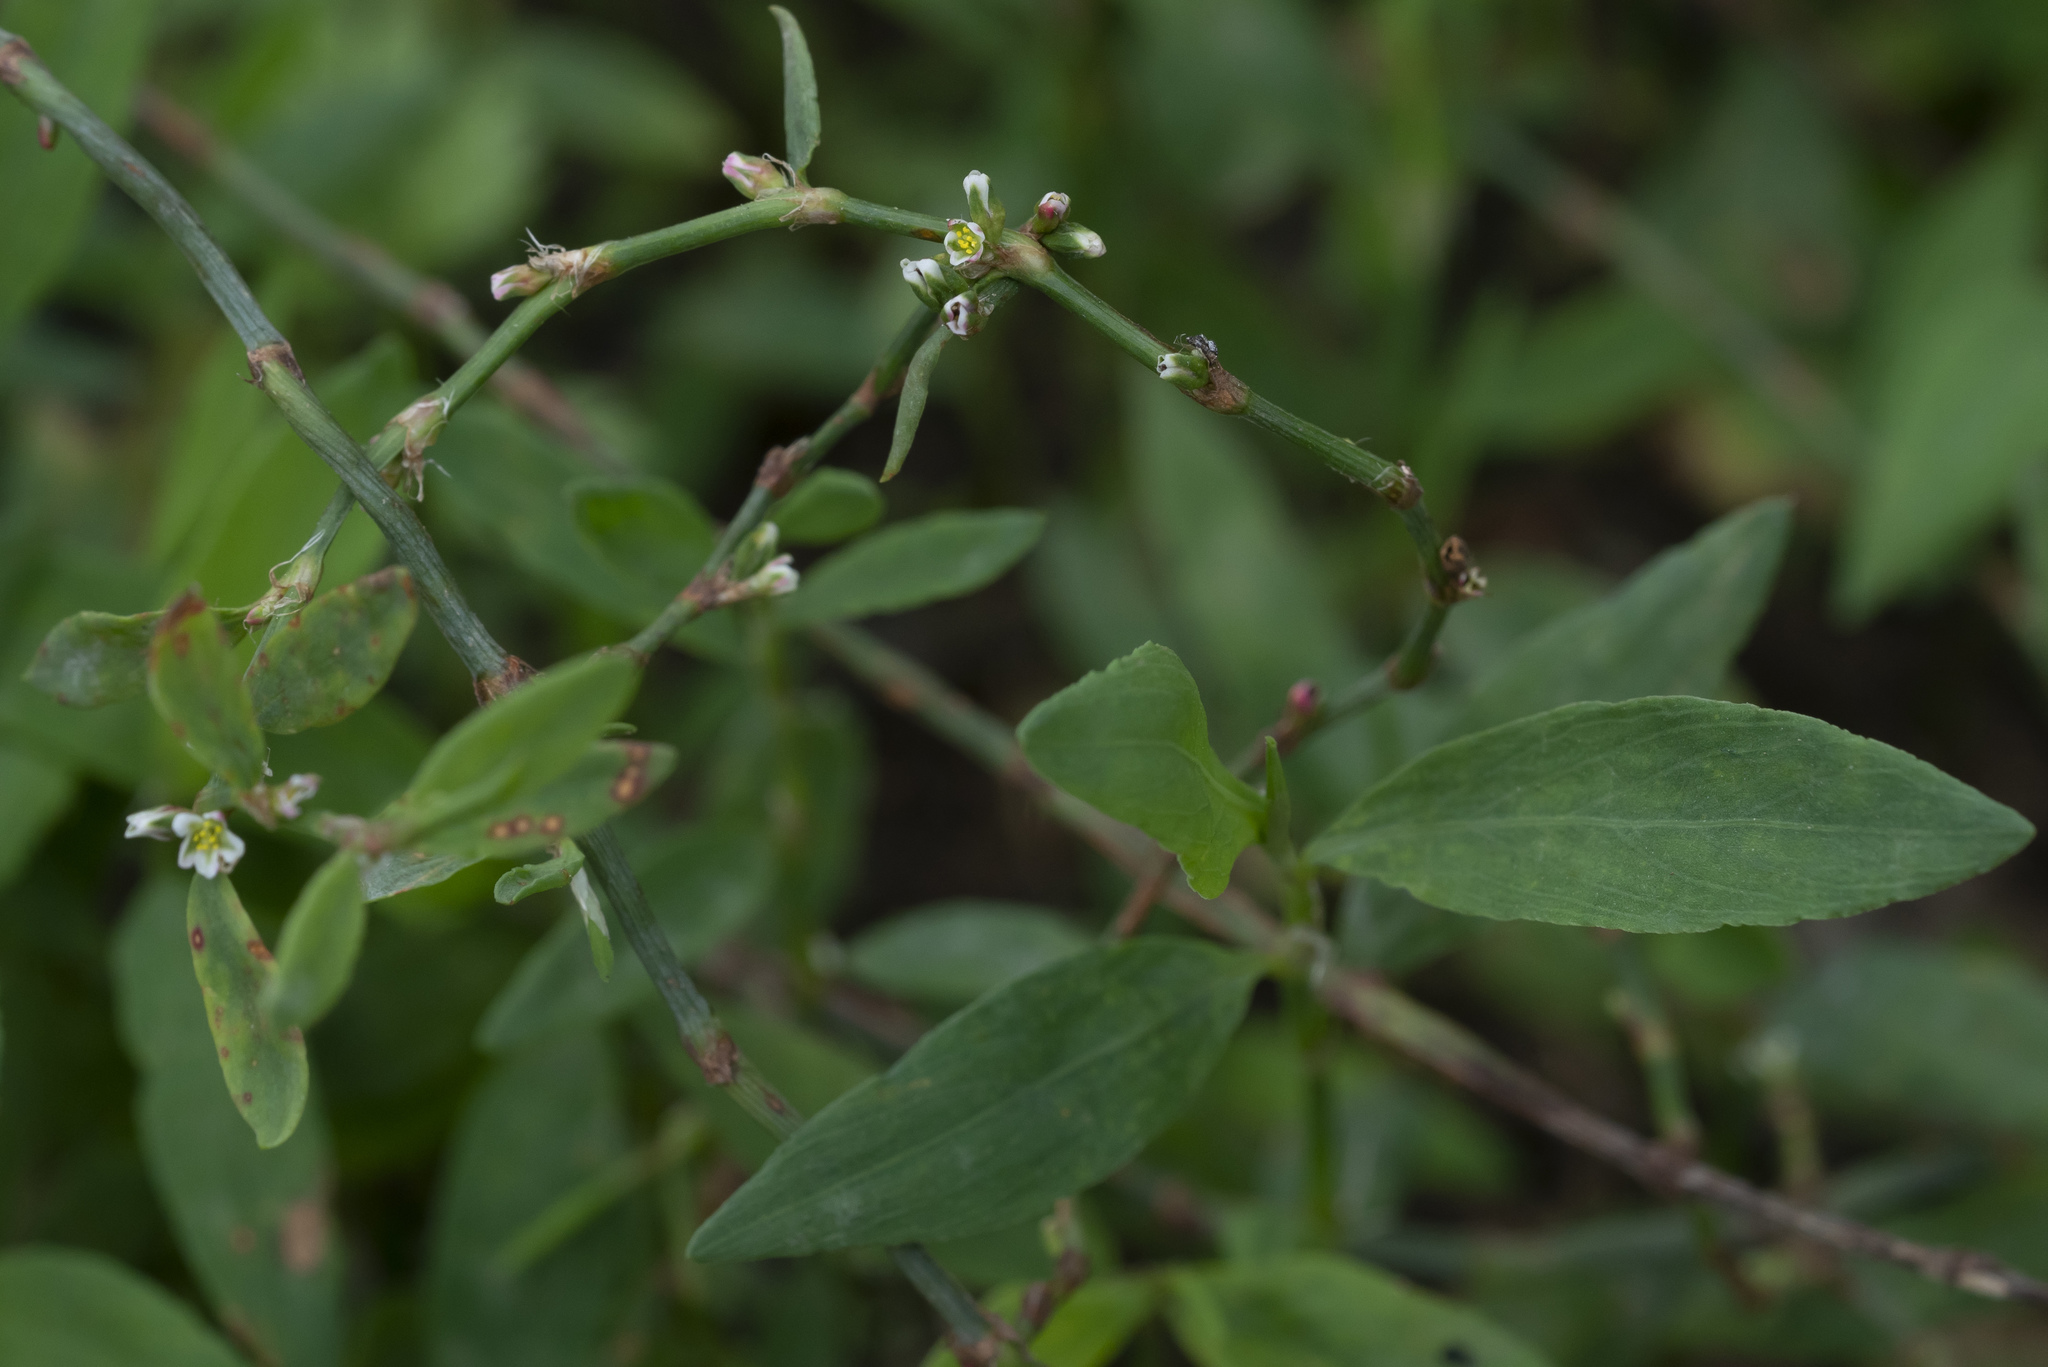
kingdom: Plantae
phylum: Tracheophyta
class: Magnoliopsida
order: Caryophyllales
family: Polygonaceae
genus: Polygonum
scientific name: Polygonum aviculare
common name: Prostrate knotweed
